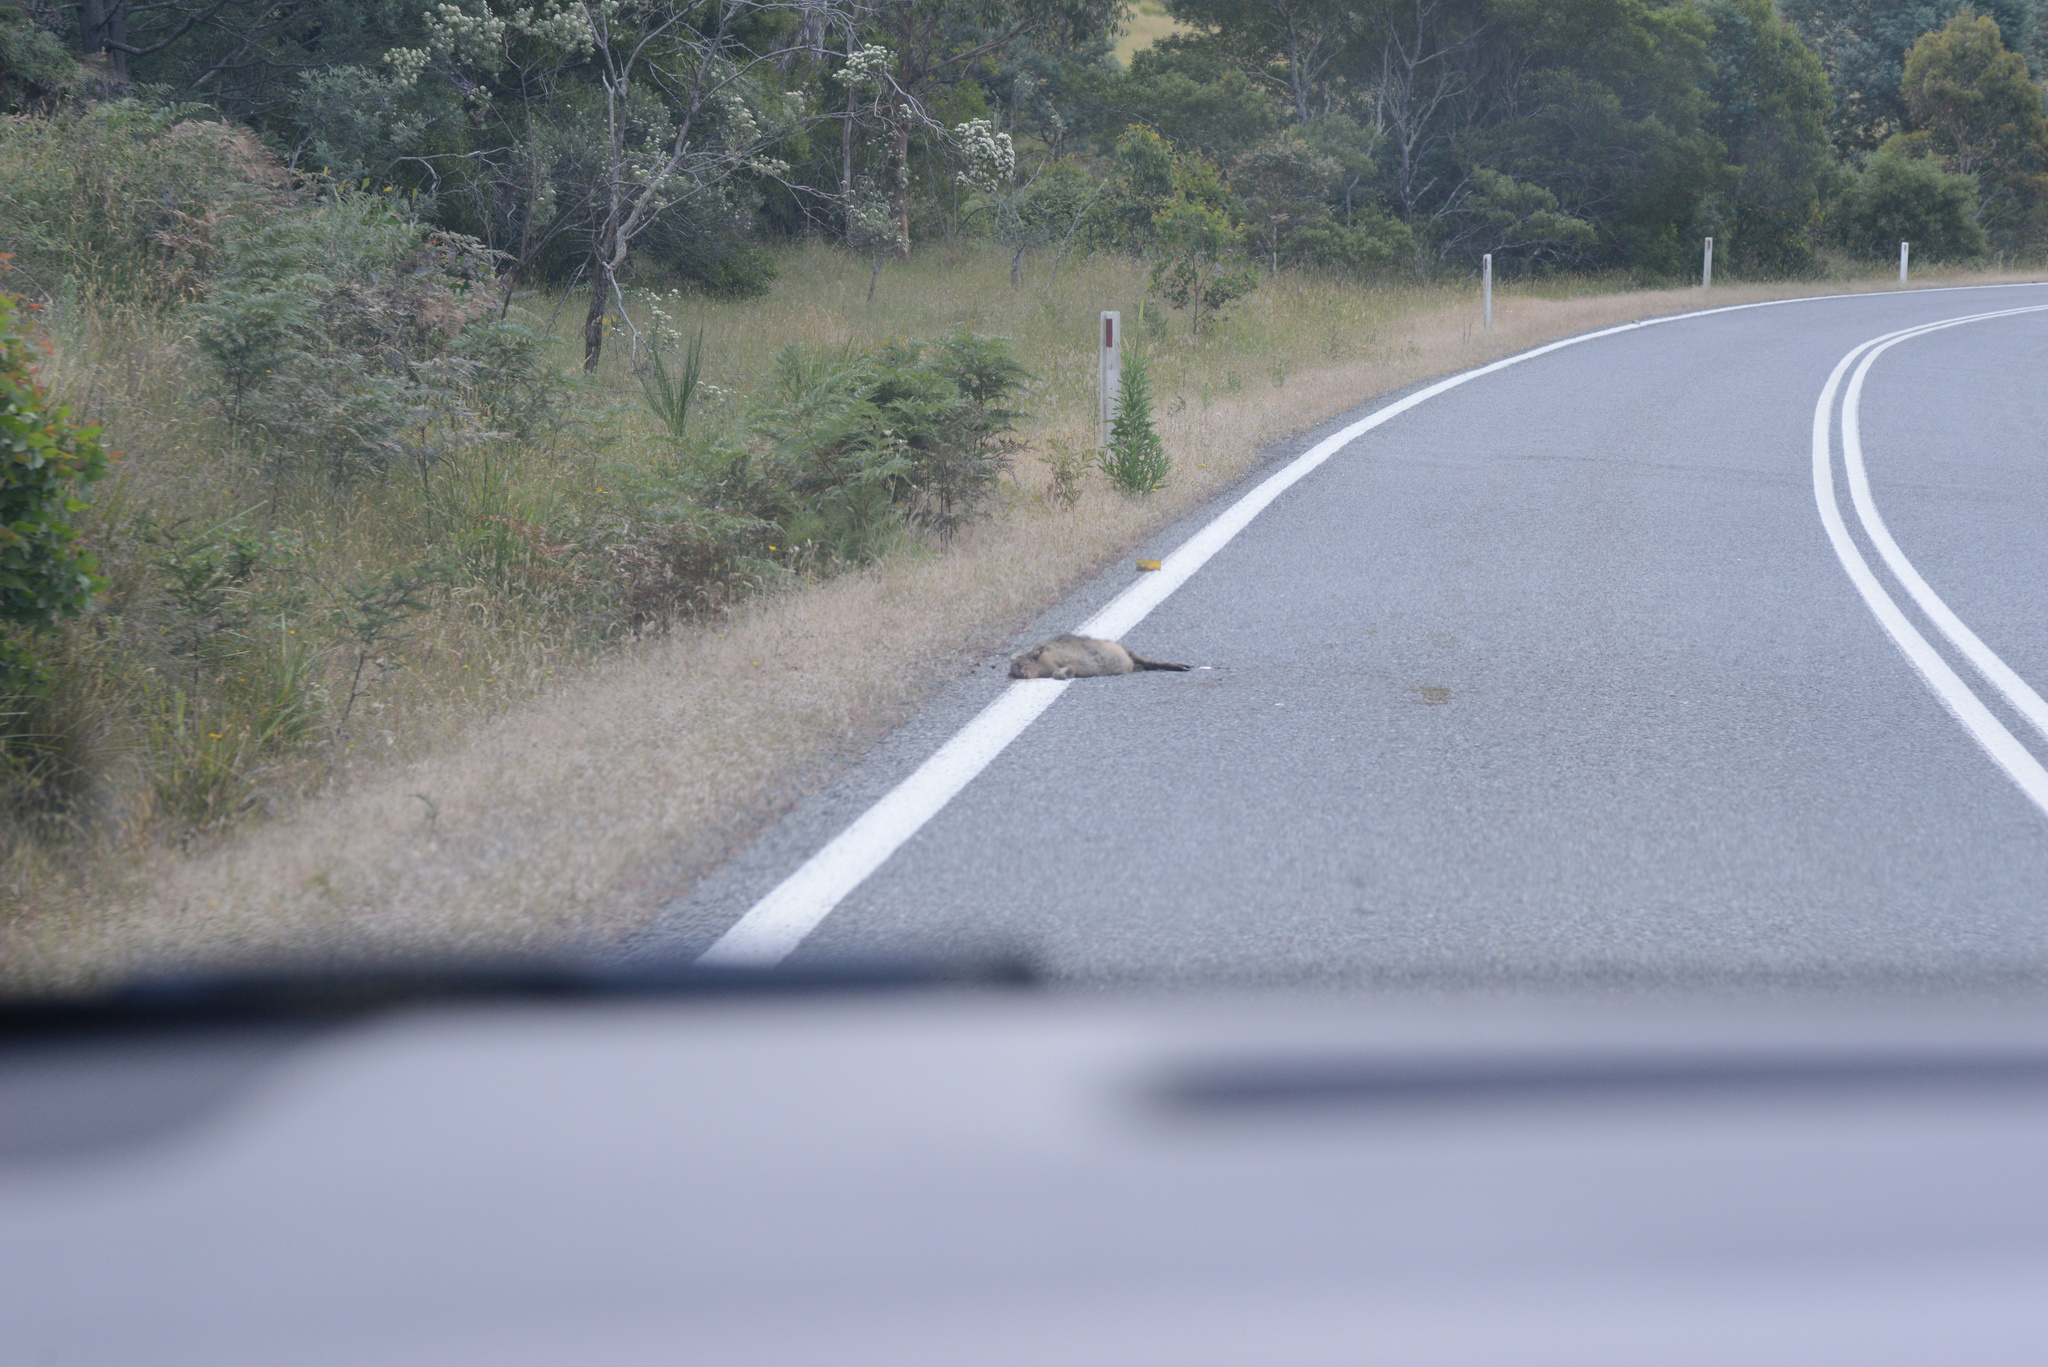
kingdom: Animalia
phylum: Chordata
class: Mammalia
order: Diprotodontia
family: Macropodidae
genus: Thylogale
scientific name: Thylogale billardierii
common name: Tasmanian pademelon
